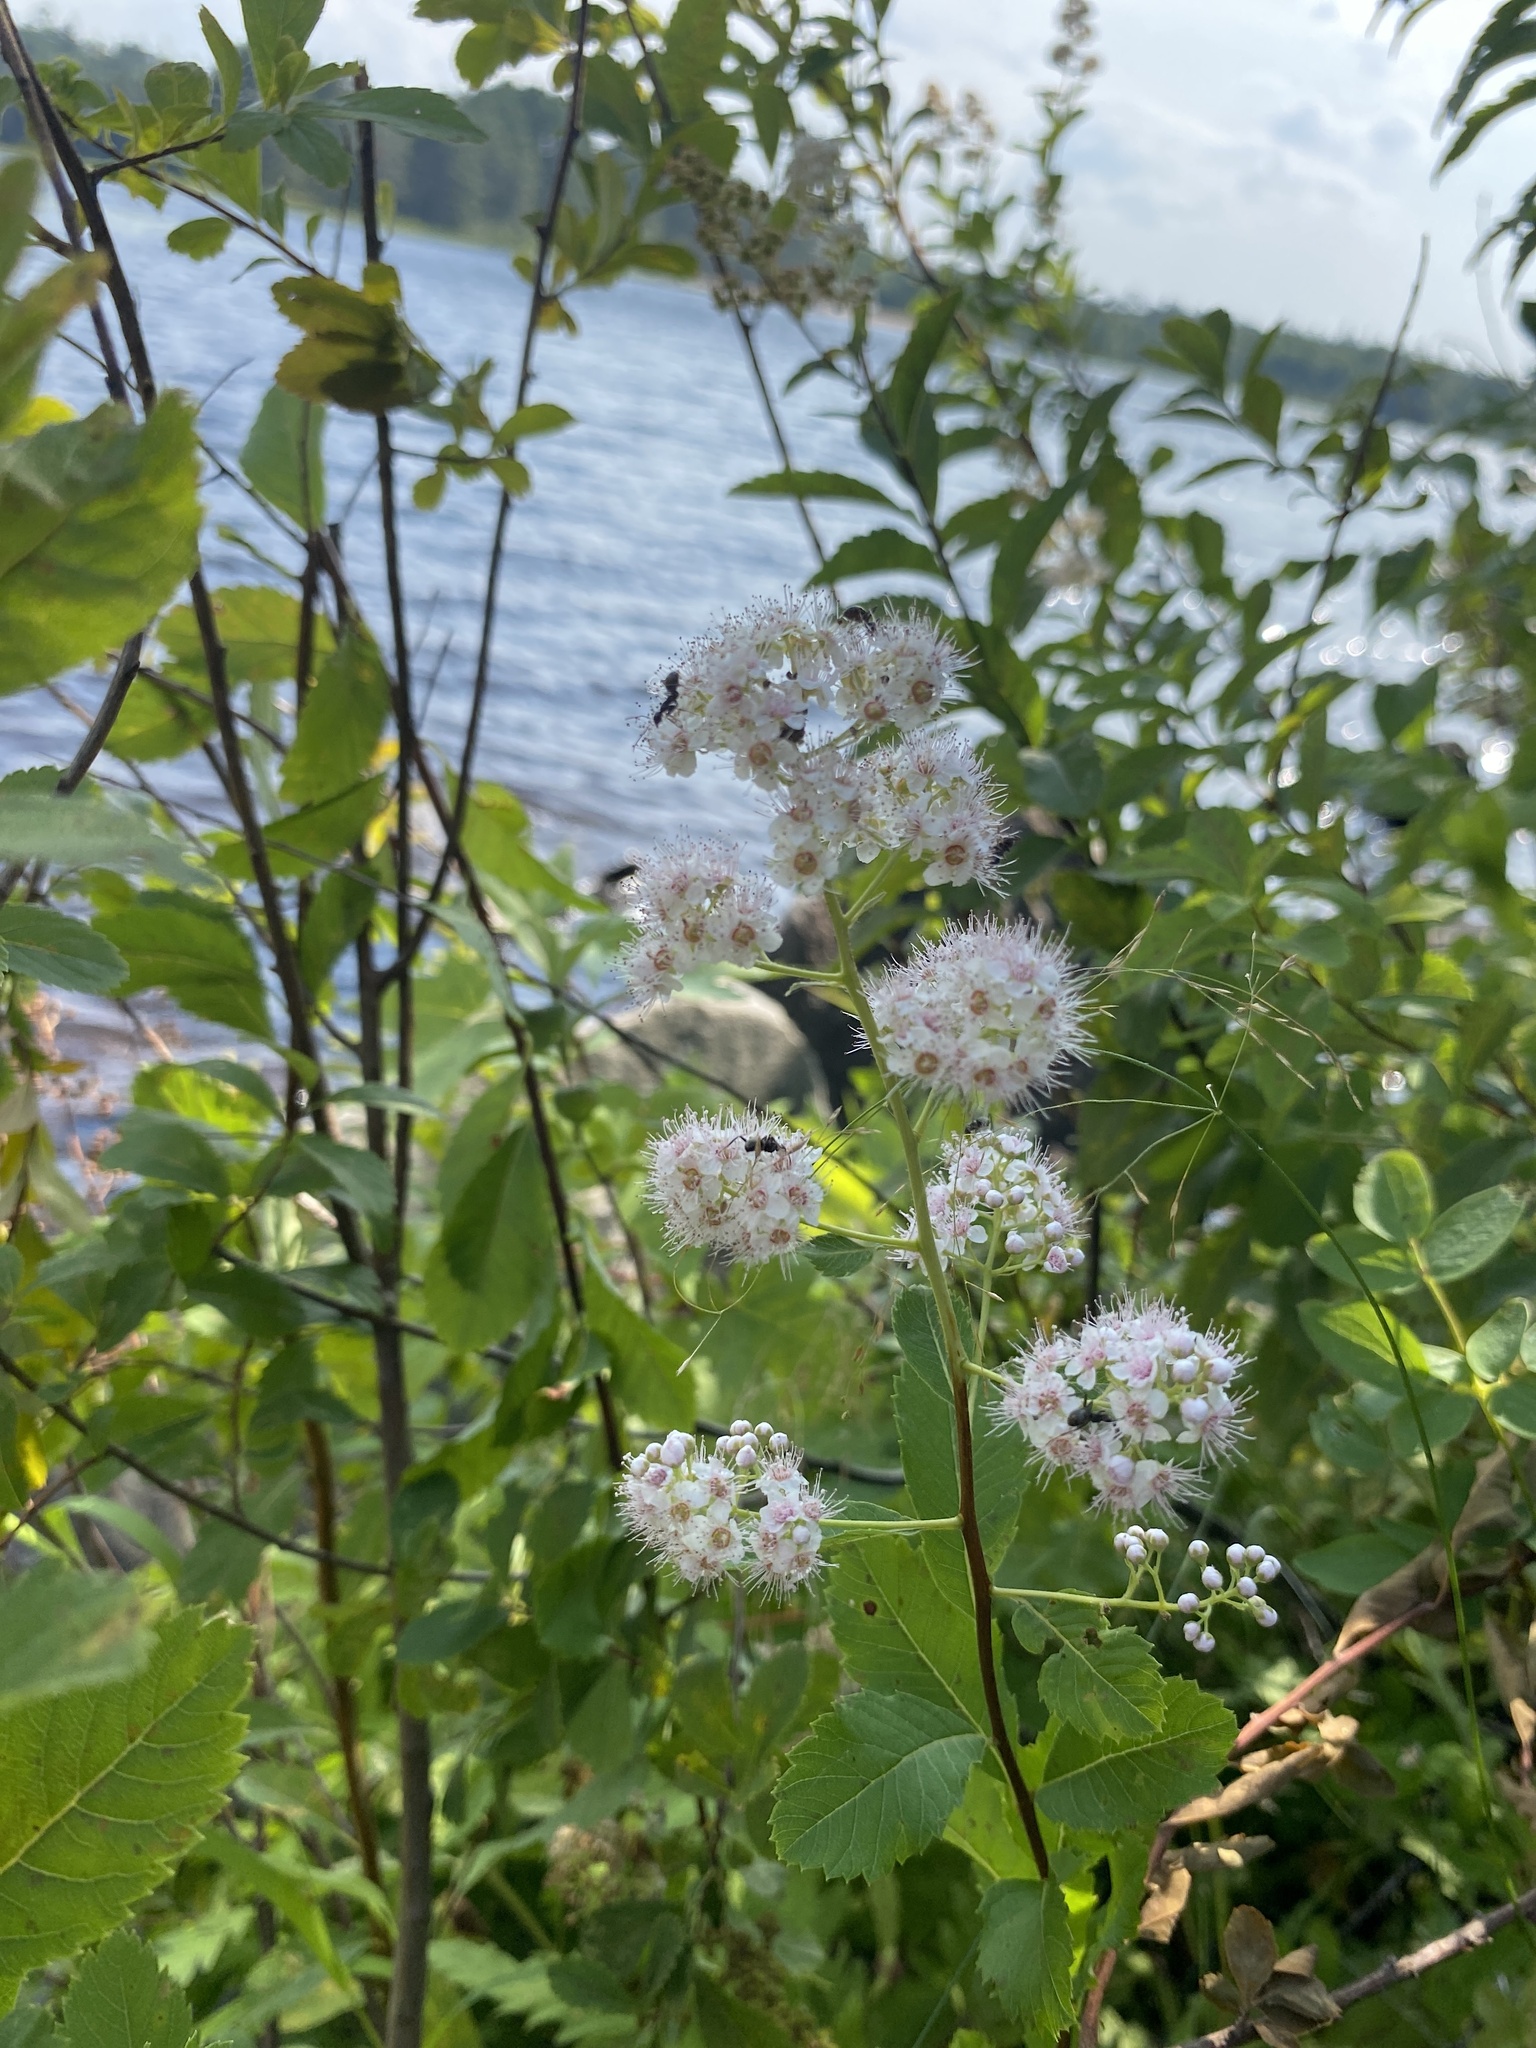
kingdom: Plantae
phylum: Tracheophyta
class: Magnoliopsida
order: Rosales
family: Rosaceae
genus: Spiraea
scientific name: Spiraea alba
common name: Pale bridewort
